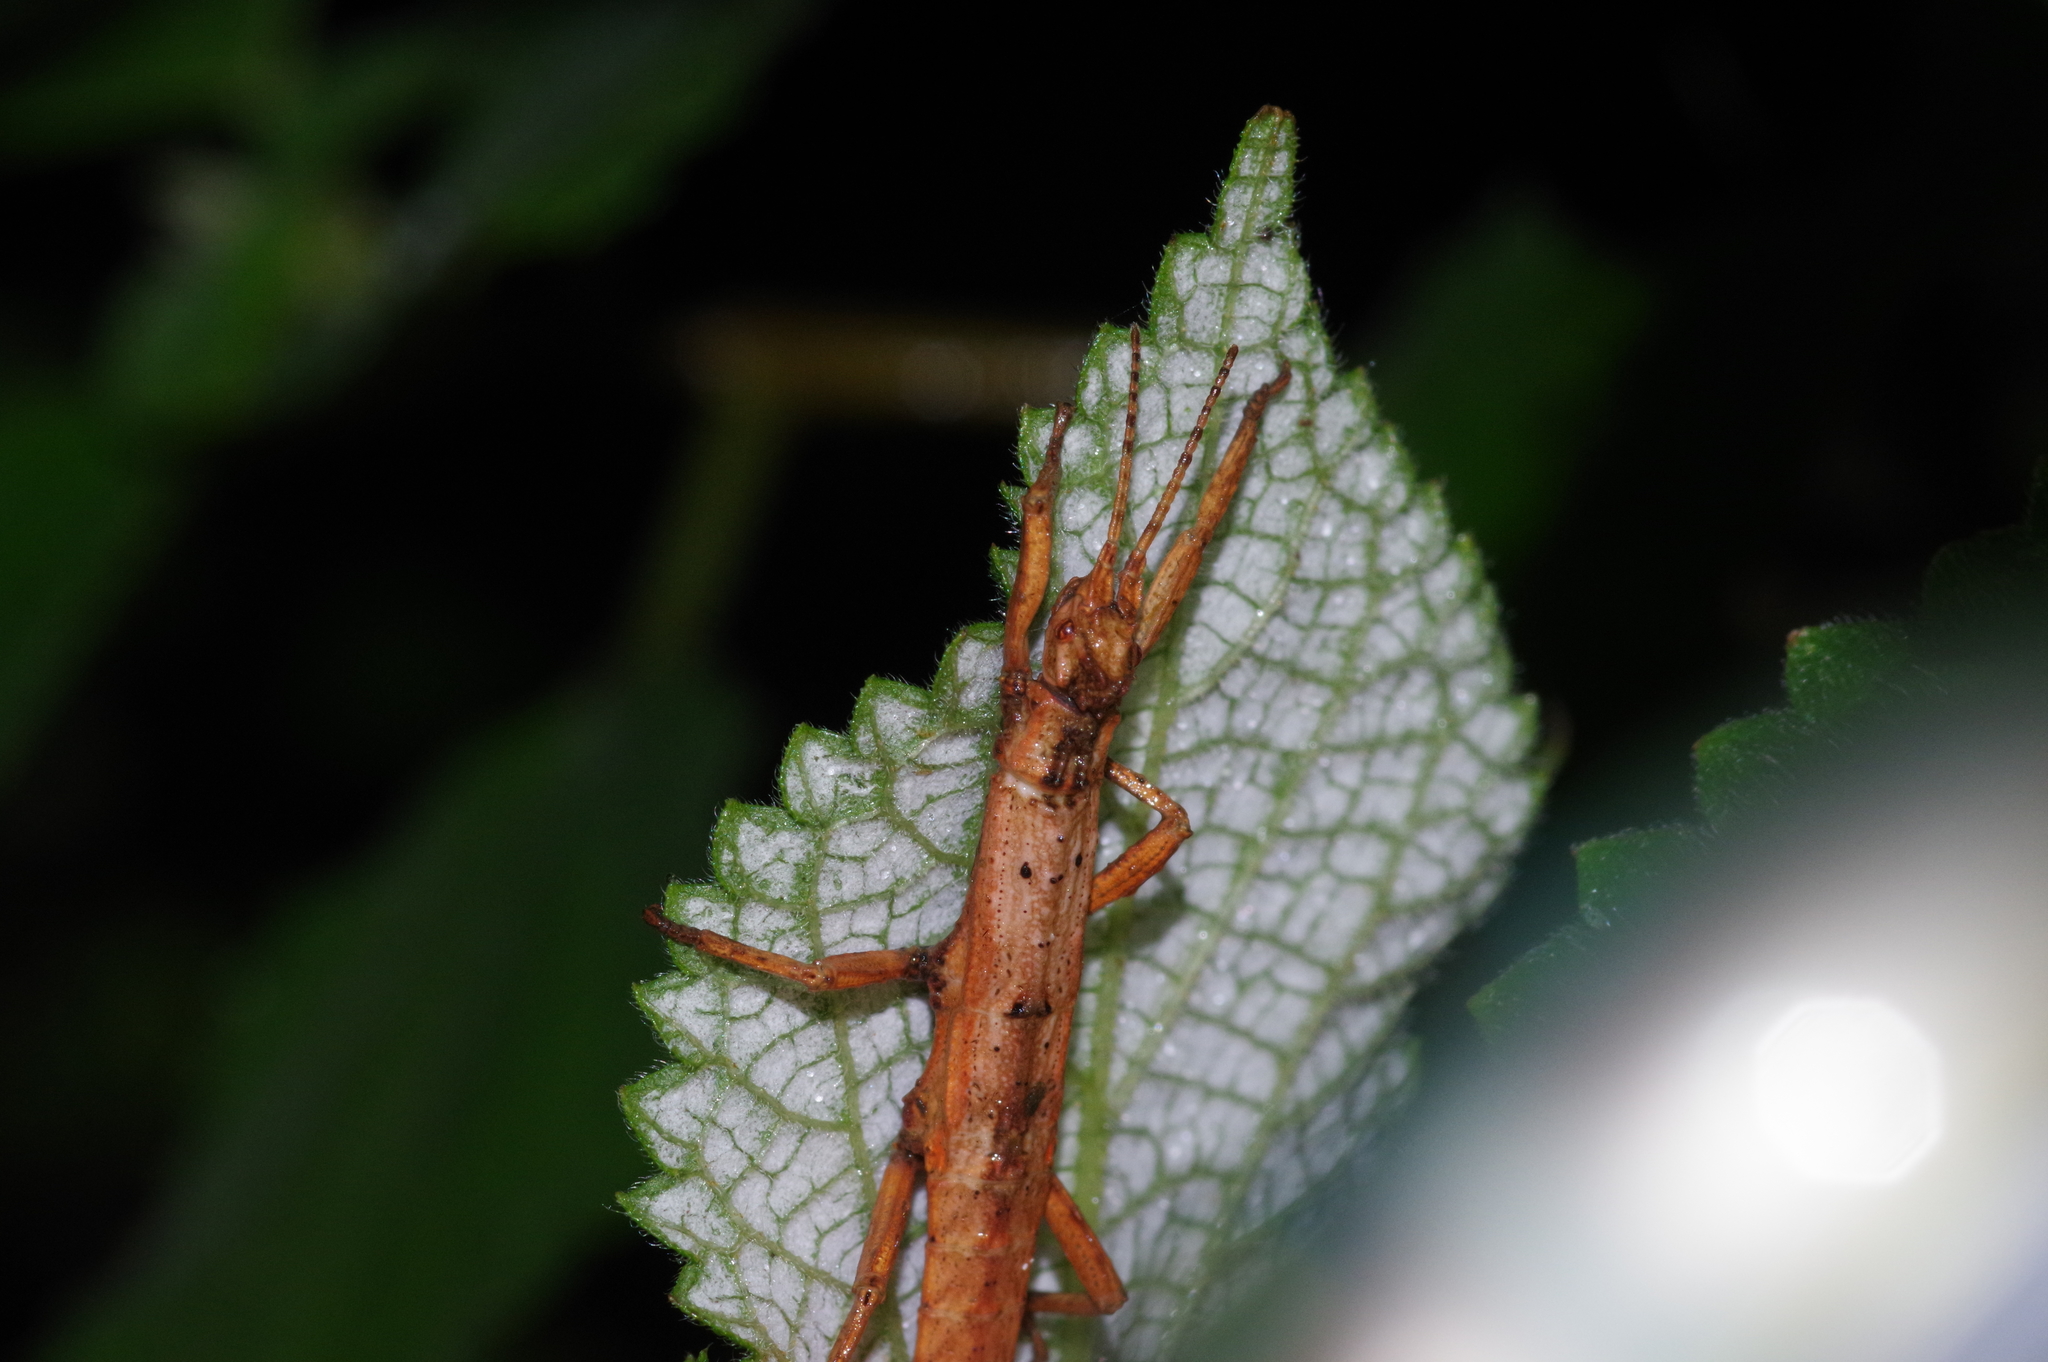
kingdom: Animalia
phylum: Arthropoda
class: Insecta
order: Phasmida
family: Heteropterygidae
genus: Orestes
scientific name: Orestes japonicus
